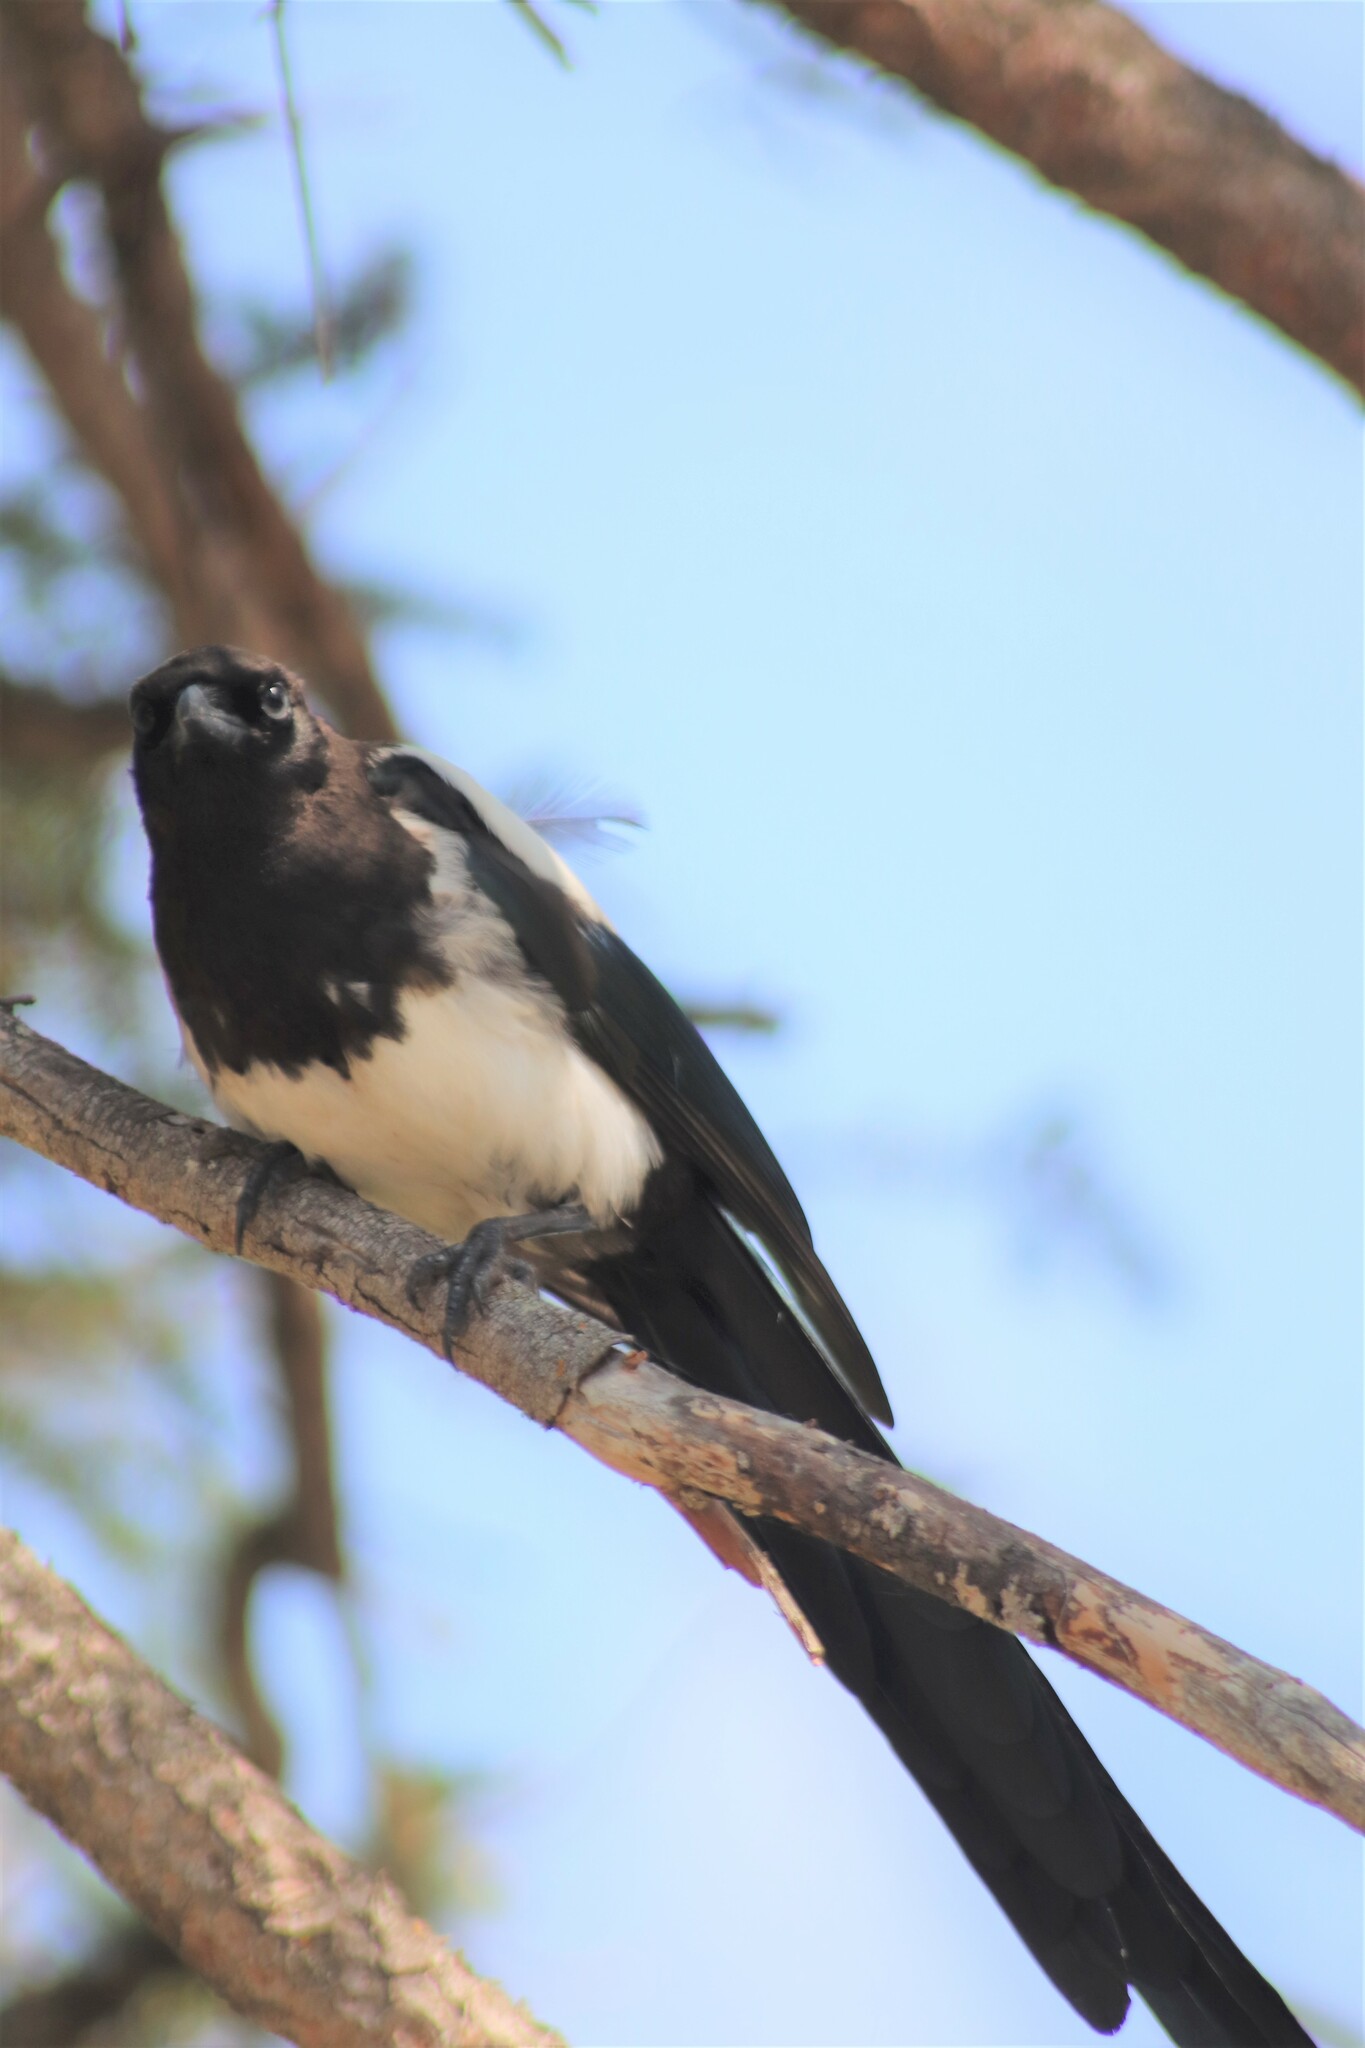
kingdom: Animalia
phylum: Chordata
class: Aves
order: Passeriformes
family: Corvidae
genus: Pica
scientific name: Pica hudsonia
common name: Black-billed magpie
